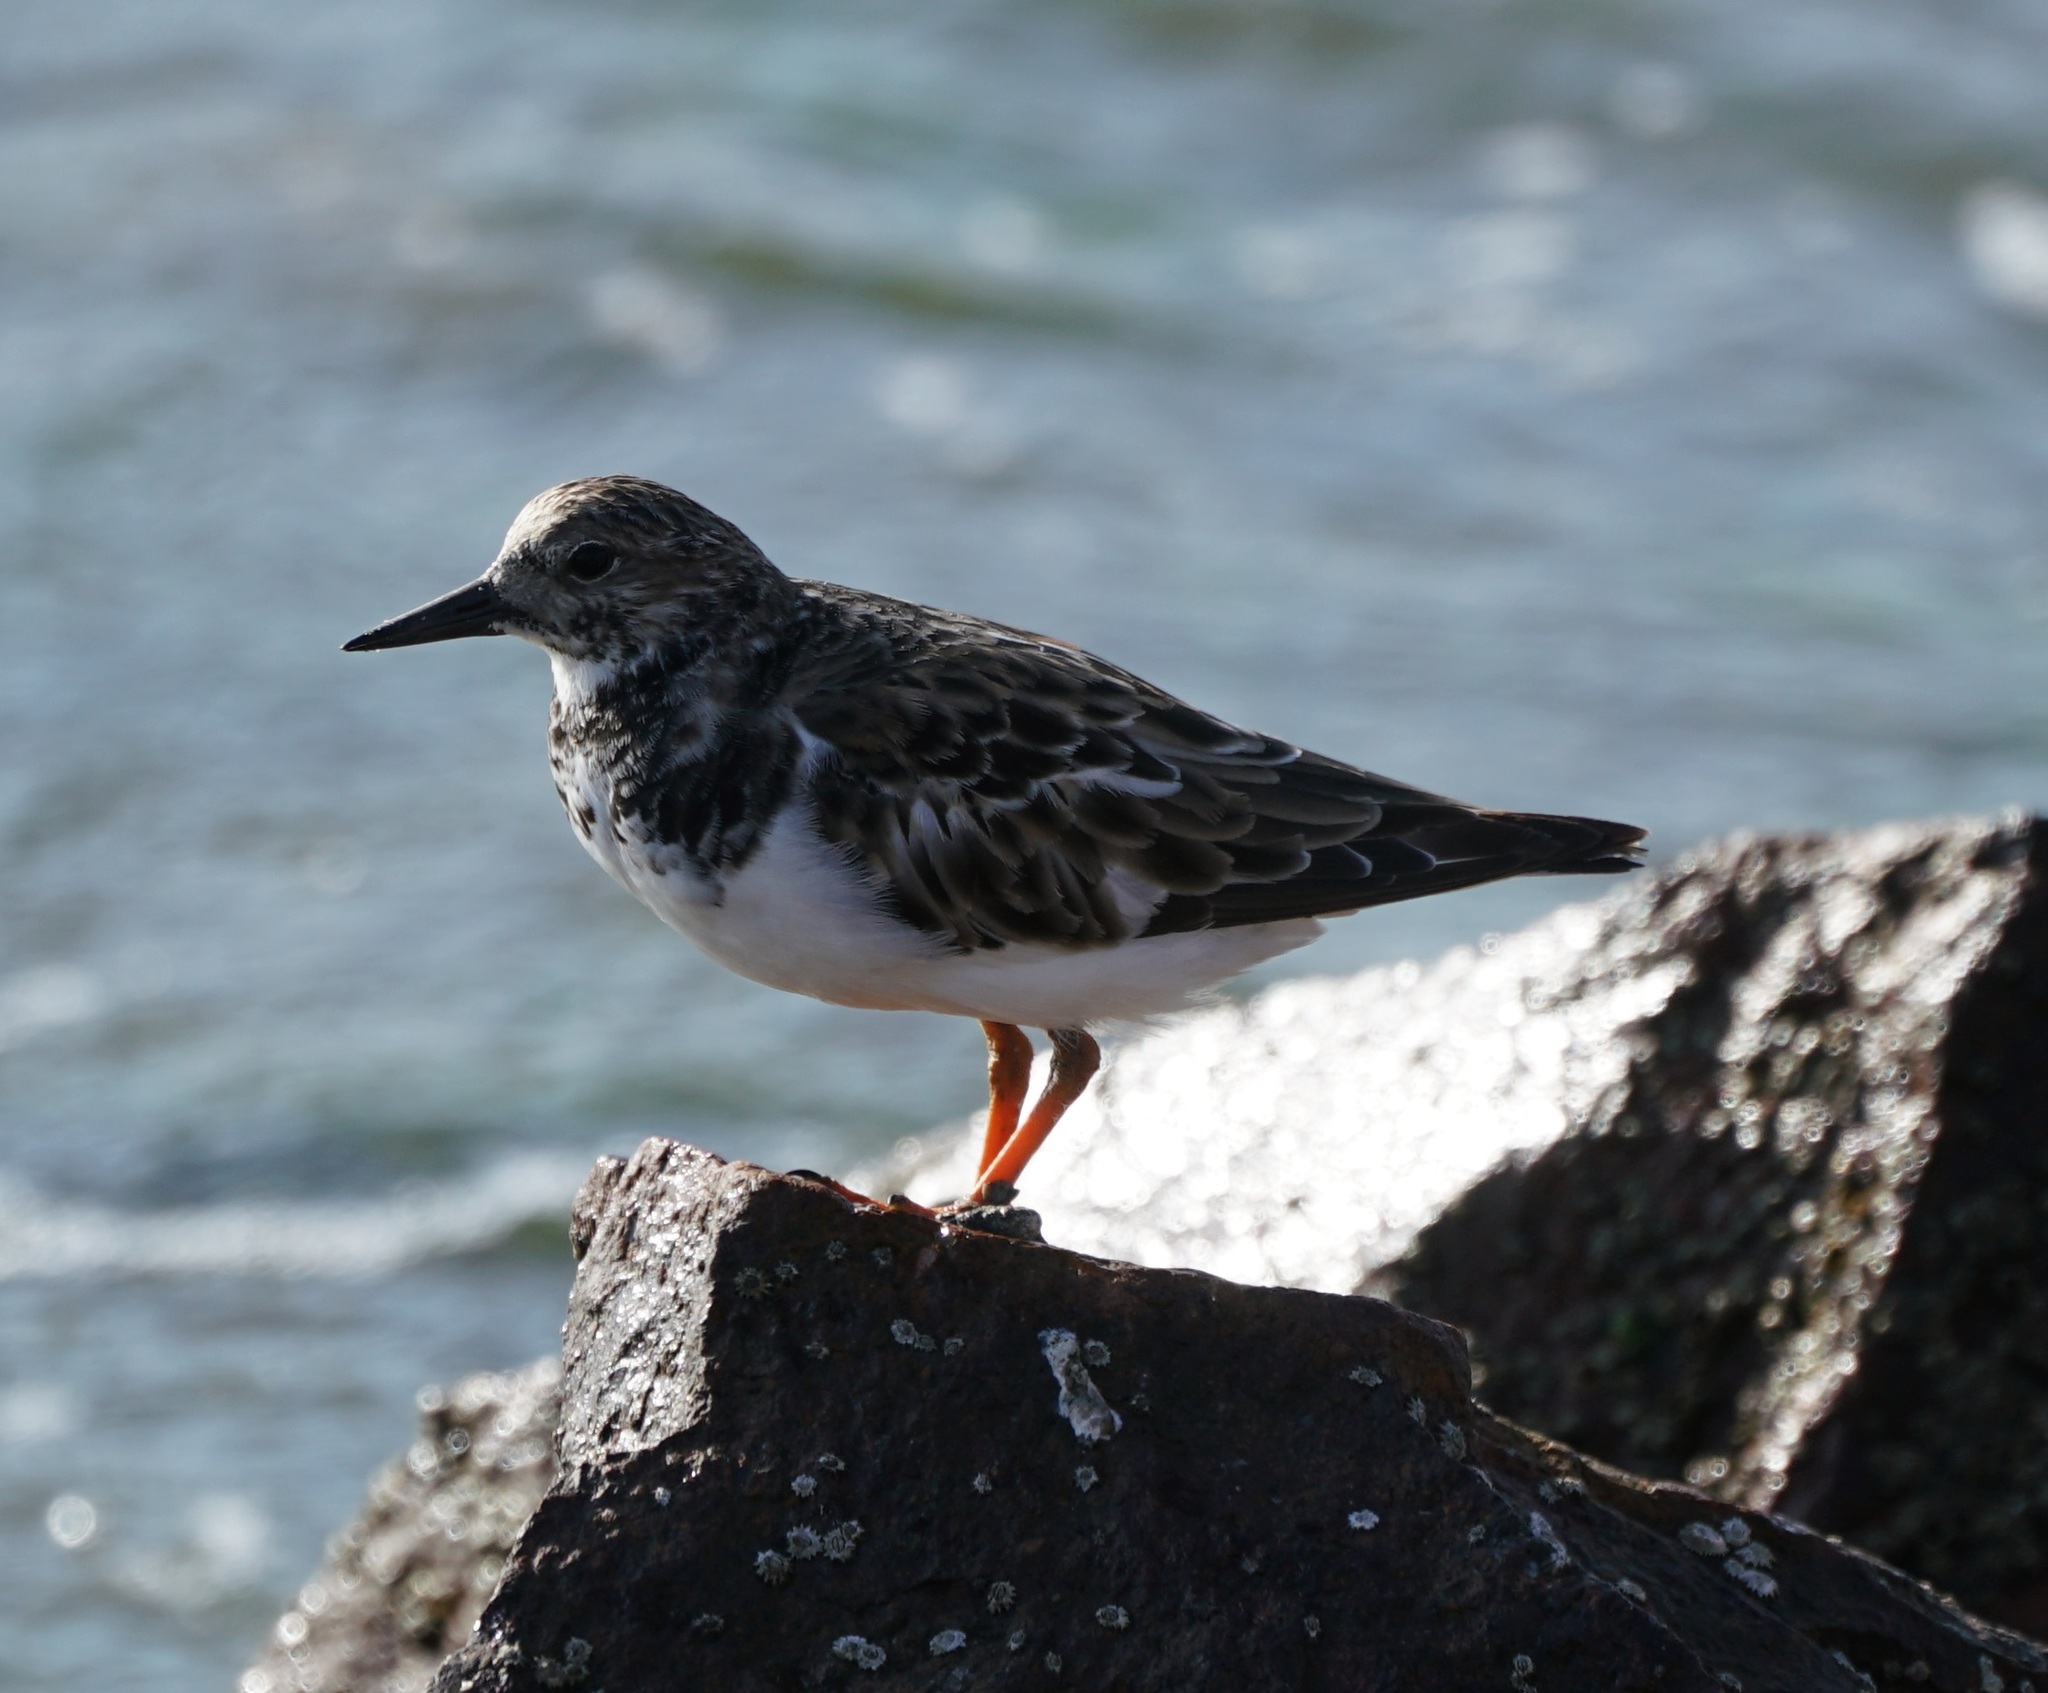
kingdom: Animalia
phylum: Chordata
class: Aves
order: Charadriiformes
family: Scolopacidae
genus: Arenaria
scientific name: Arenaria interpres
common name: Ruddy turnstone
